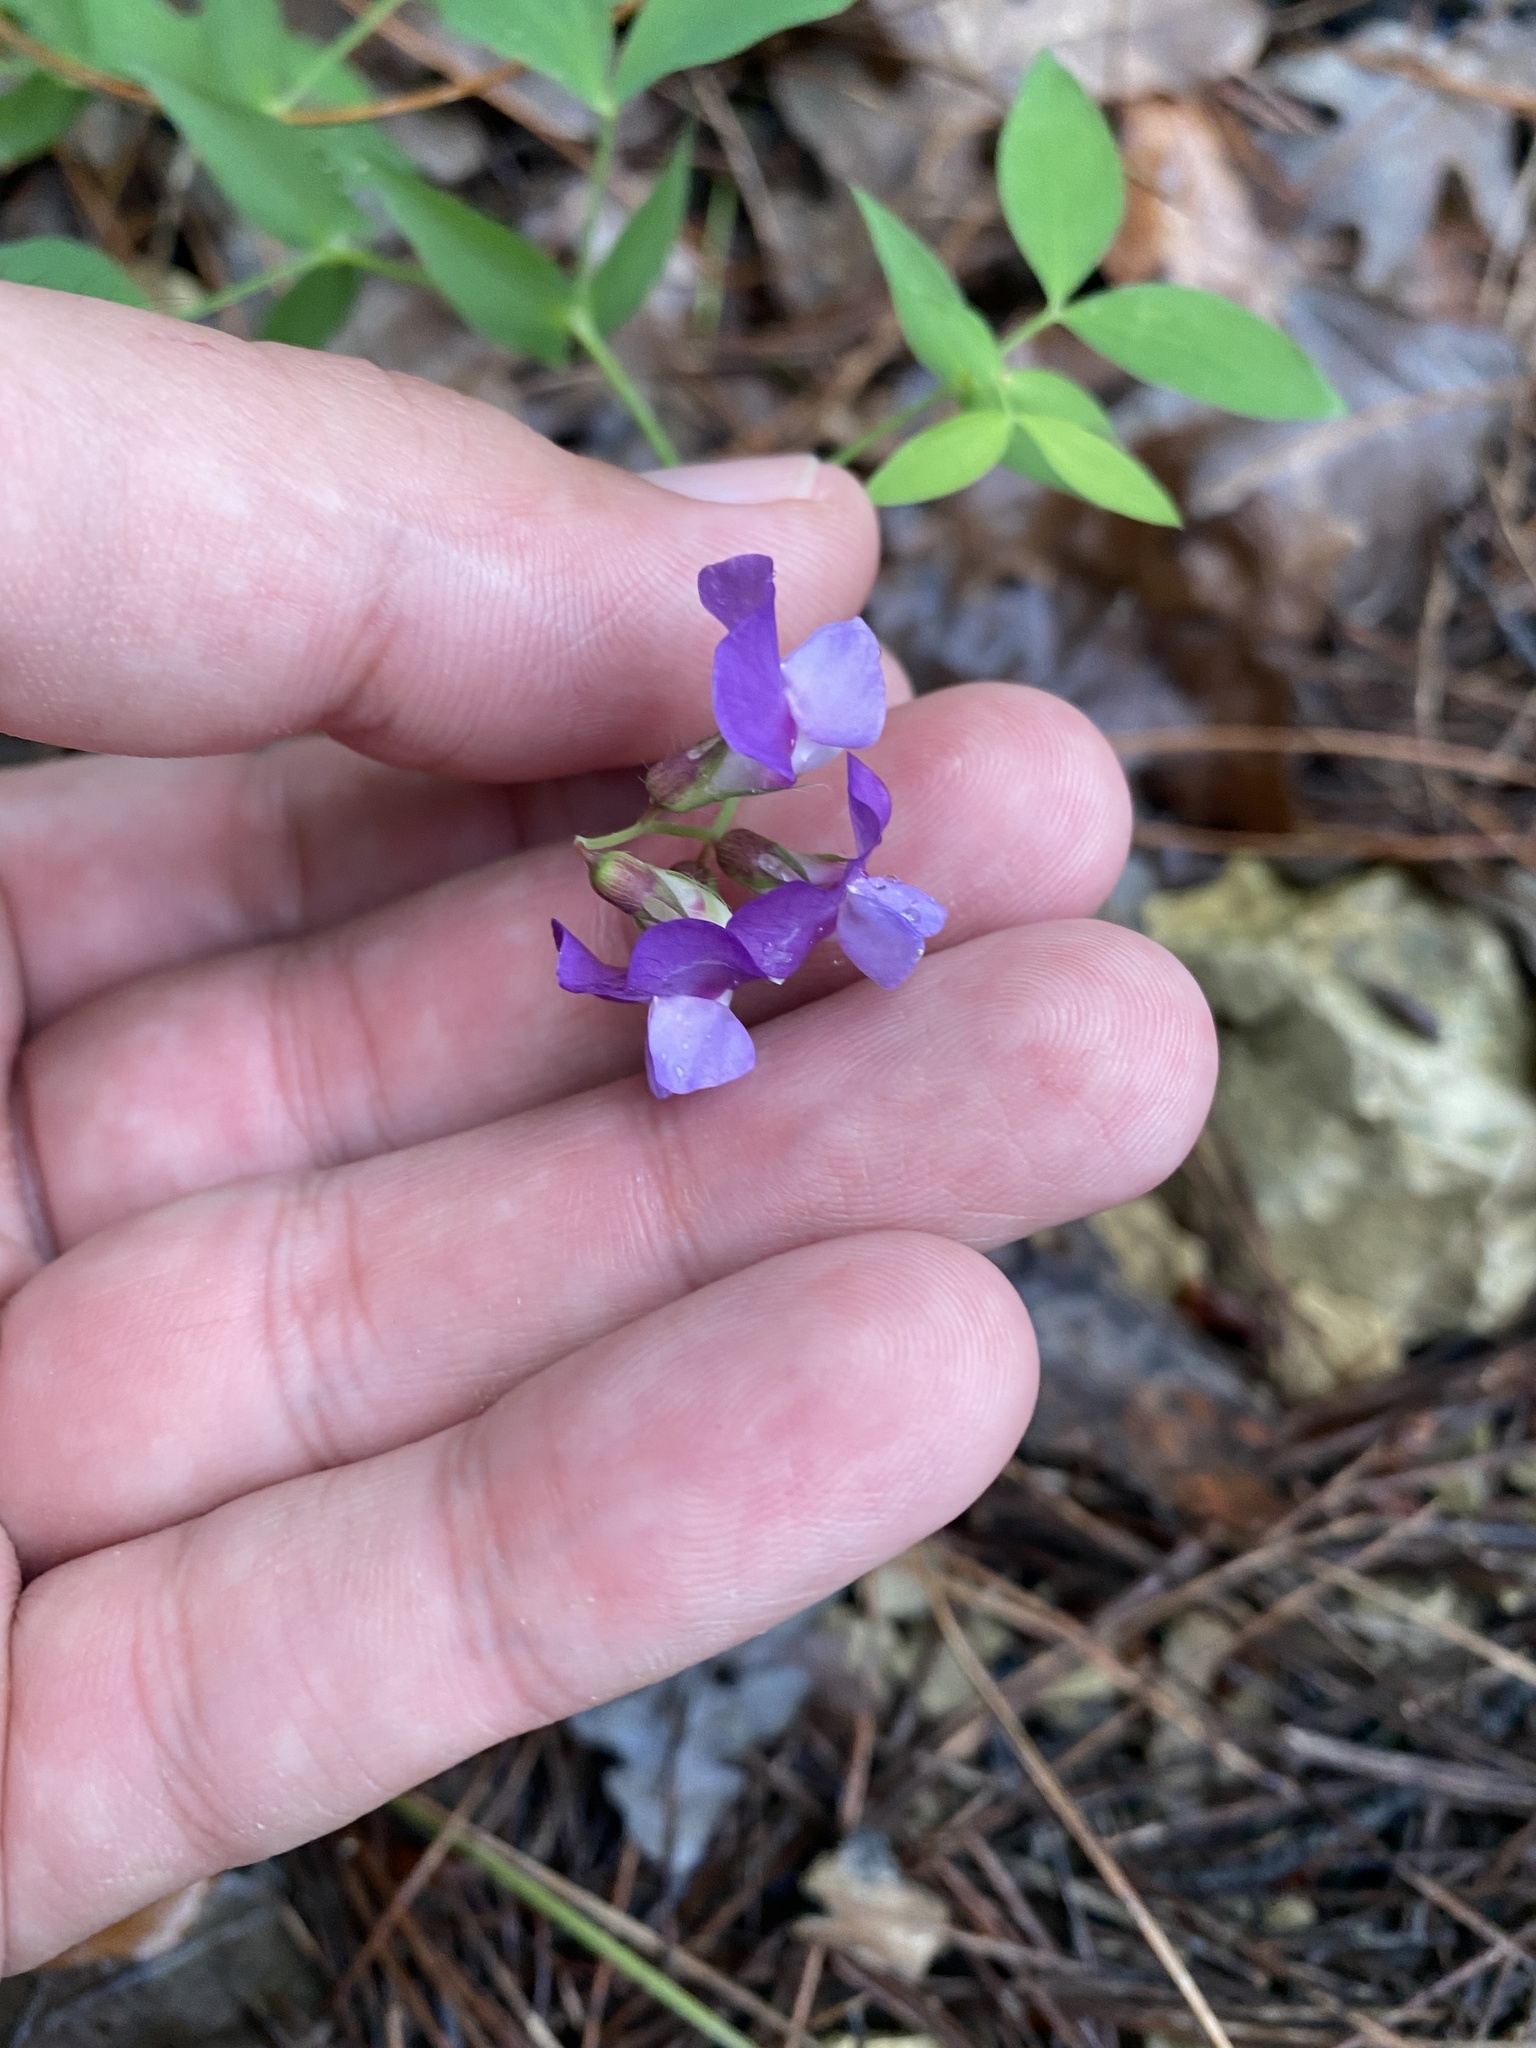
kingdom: Plantae
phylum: Tracheophyta
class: Magnoliopsida
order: Fabales
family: Fabaceae
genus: Lathyrus
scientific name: Lathyrus laxiflorus
